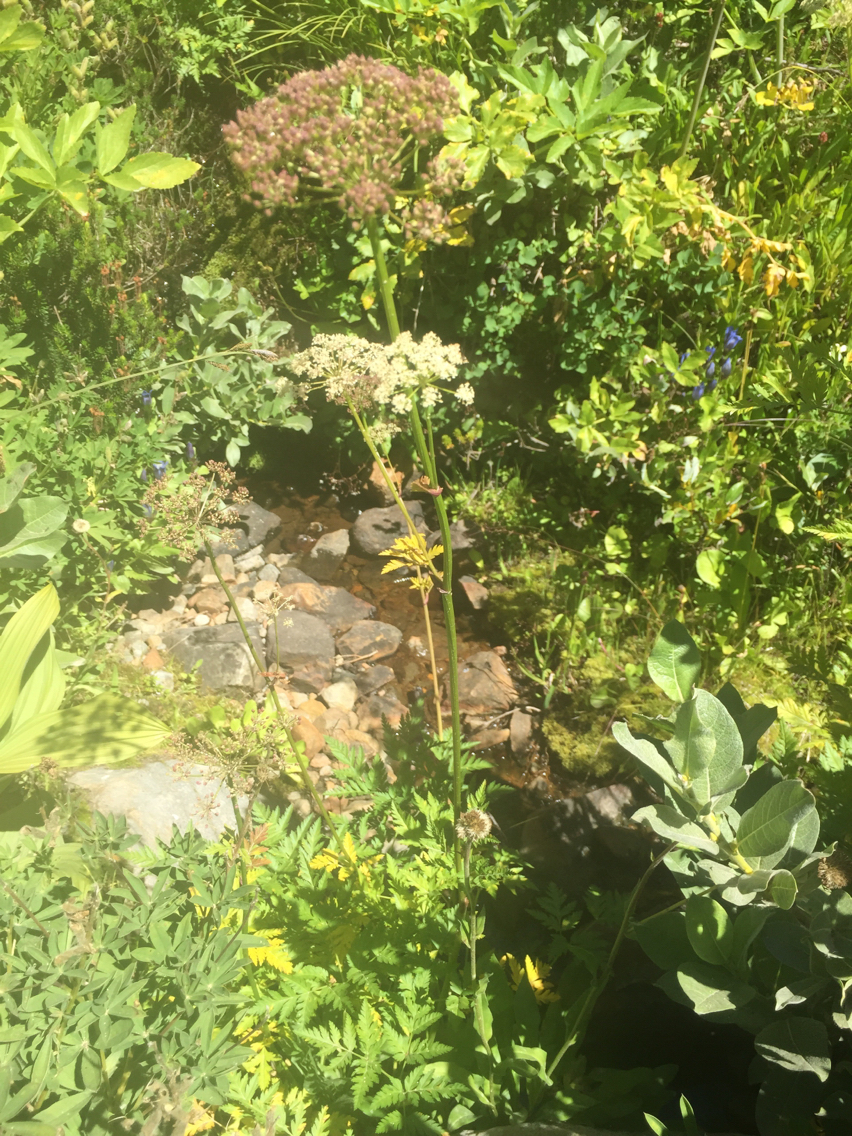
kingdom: Plantae
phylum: Tracheophyta
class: Magnoliopsida
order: Apiales
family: Apiaceae
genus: Ligusticum
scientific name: Ligusticum grayi
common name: Gray's licorice-root
